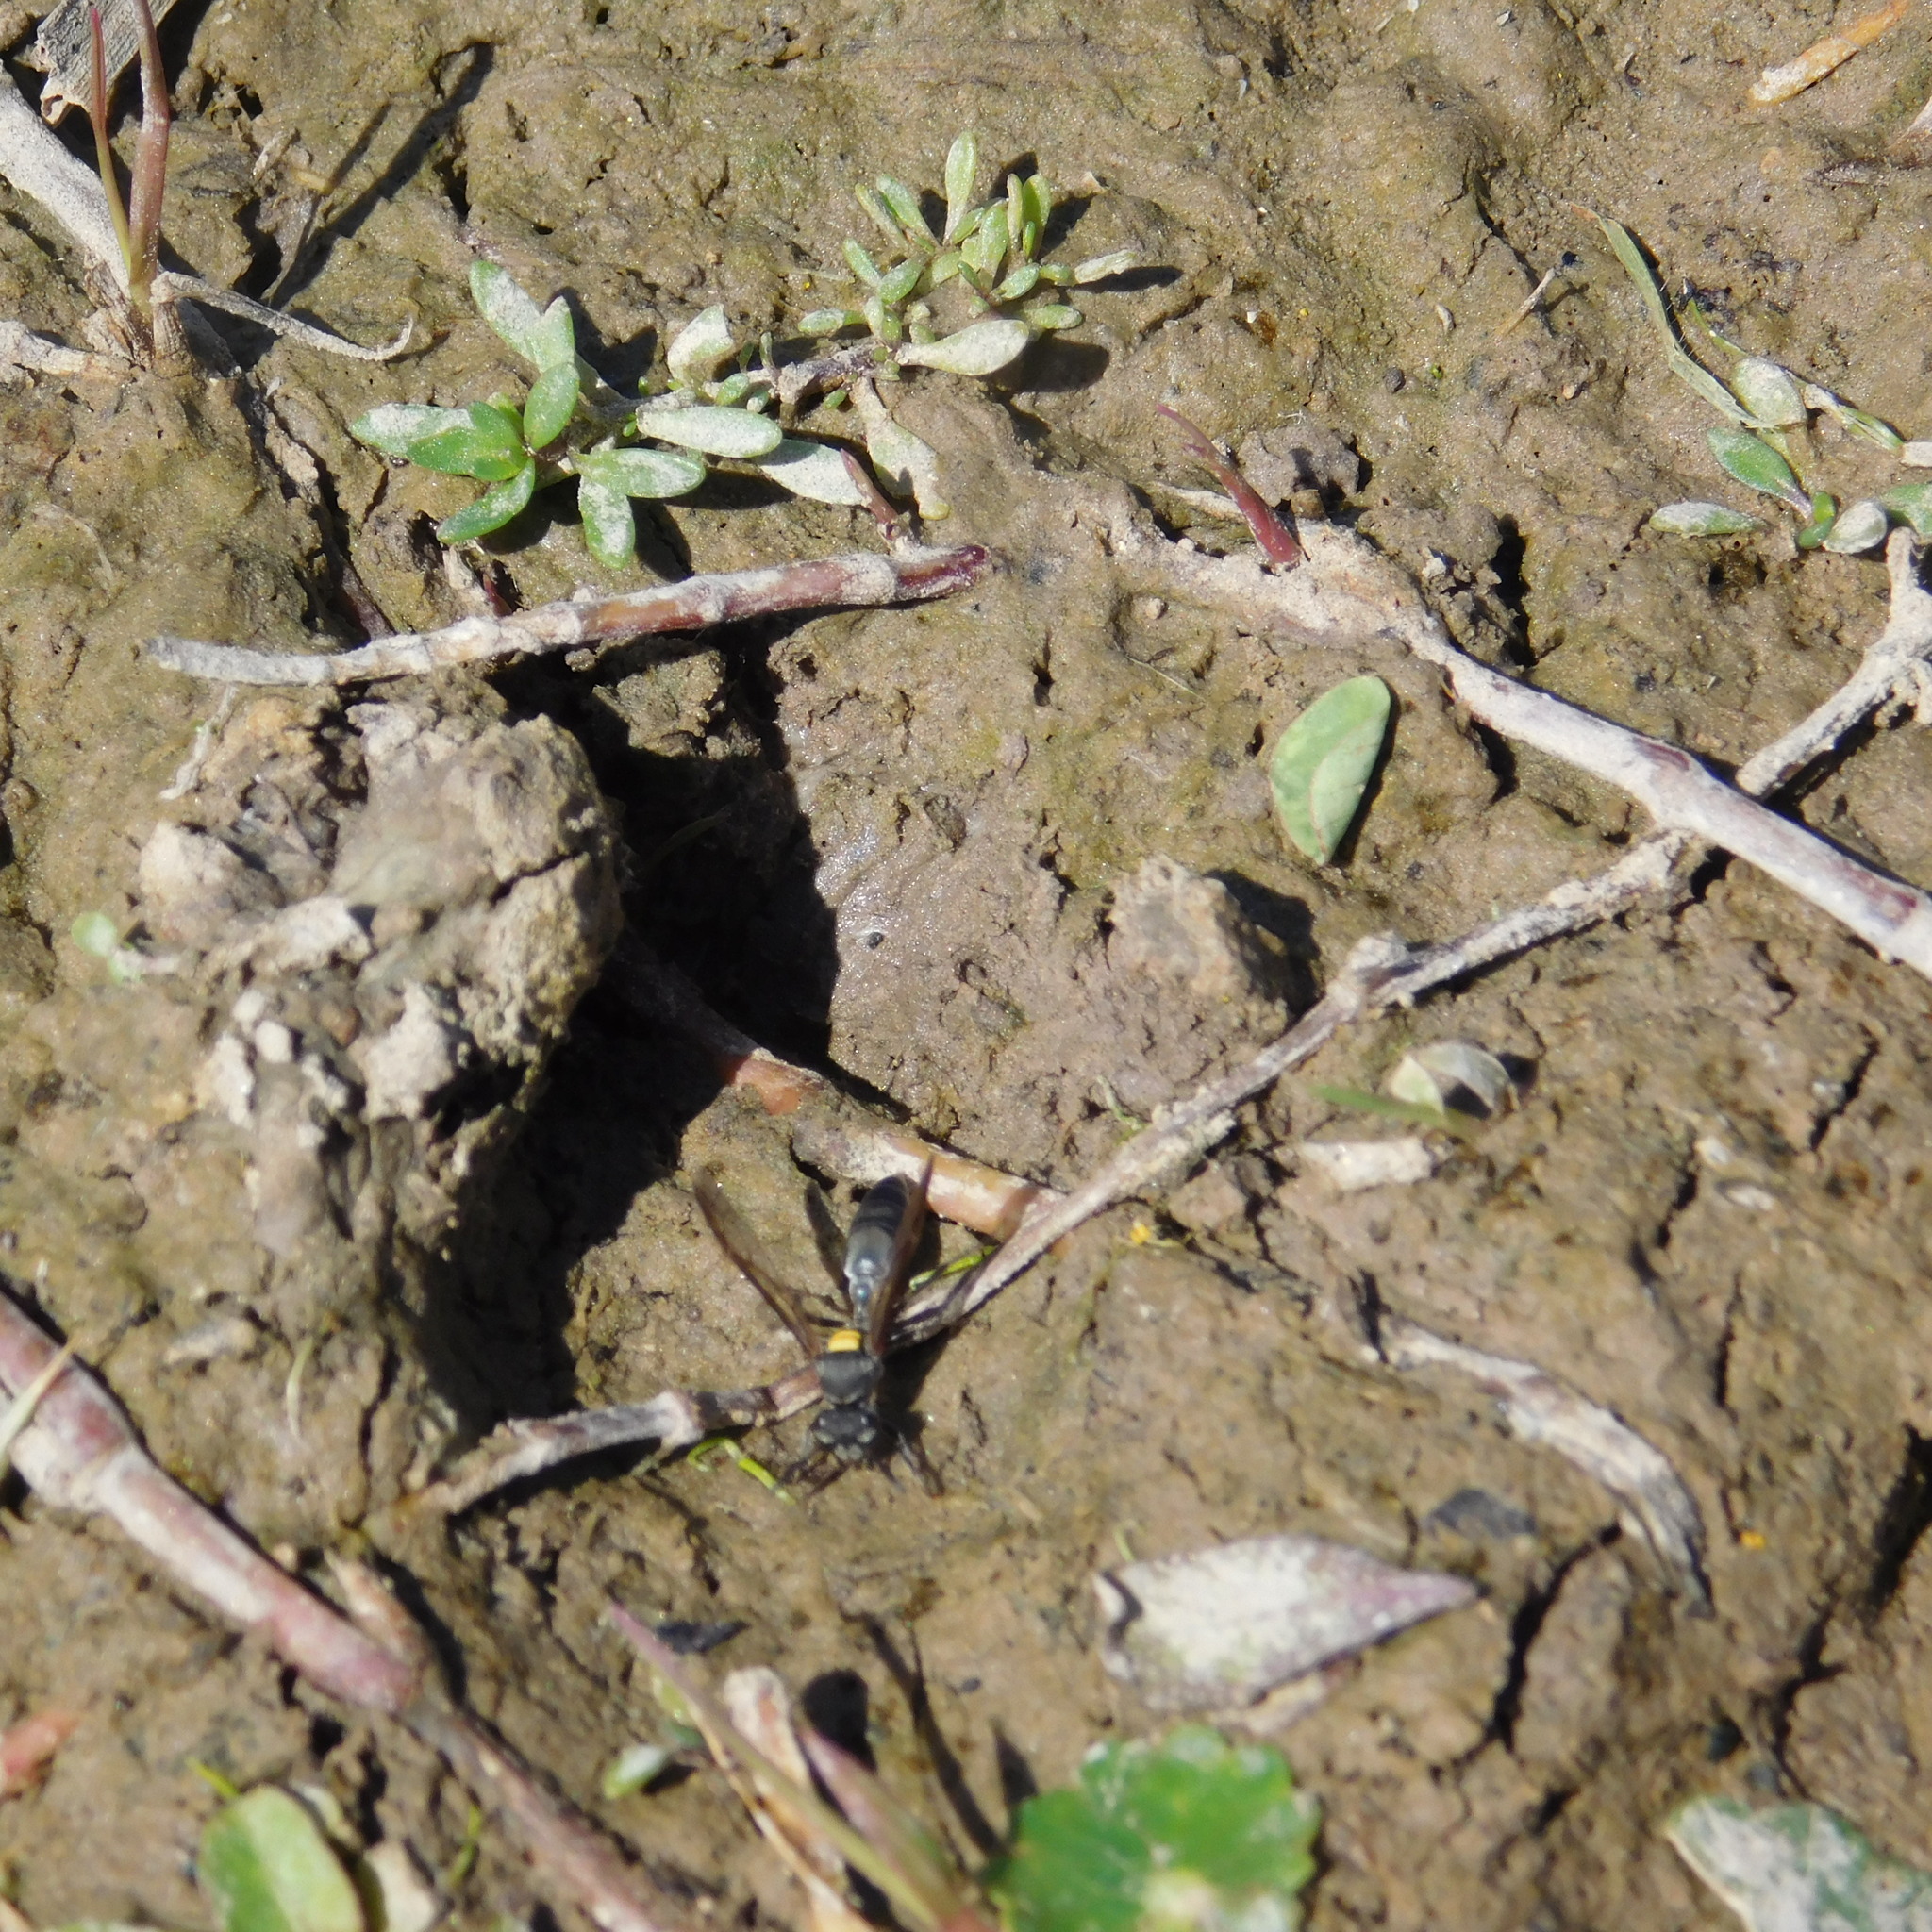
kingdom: Animalia
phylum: Arthropoda
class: Insecta
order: Hymenoptera
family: Eumenidae
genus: Polybia
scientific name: Polybia scutellaris
